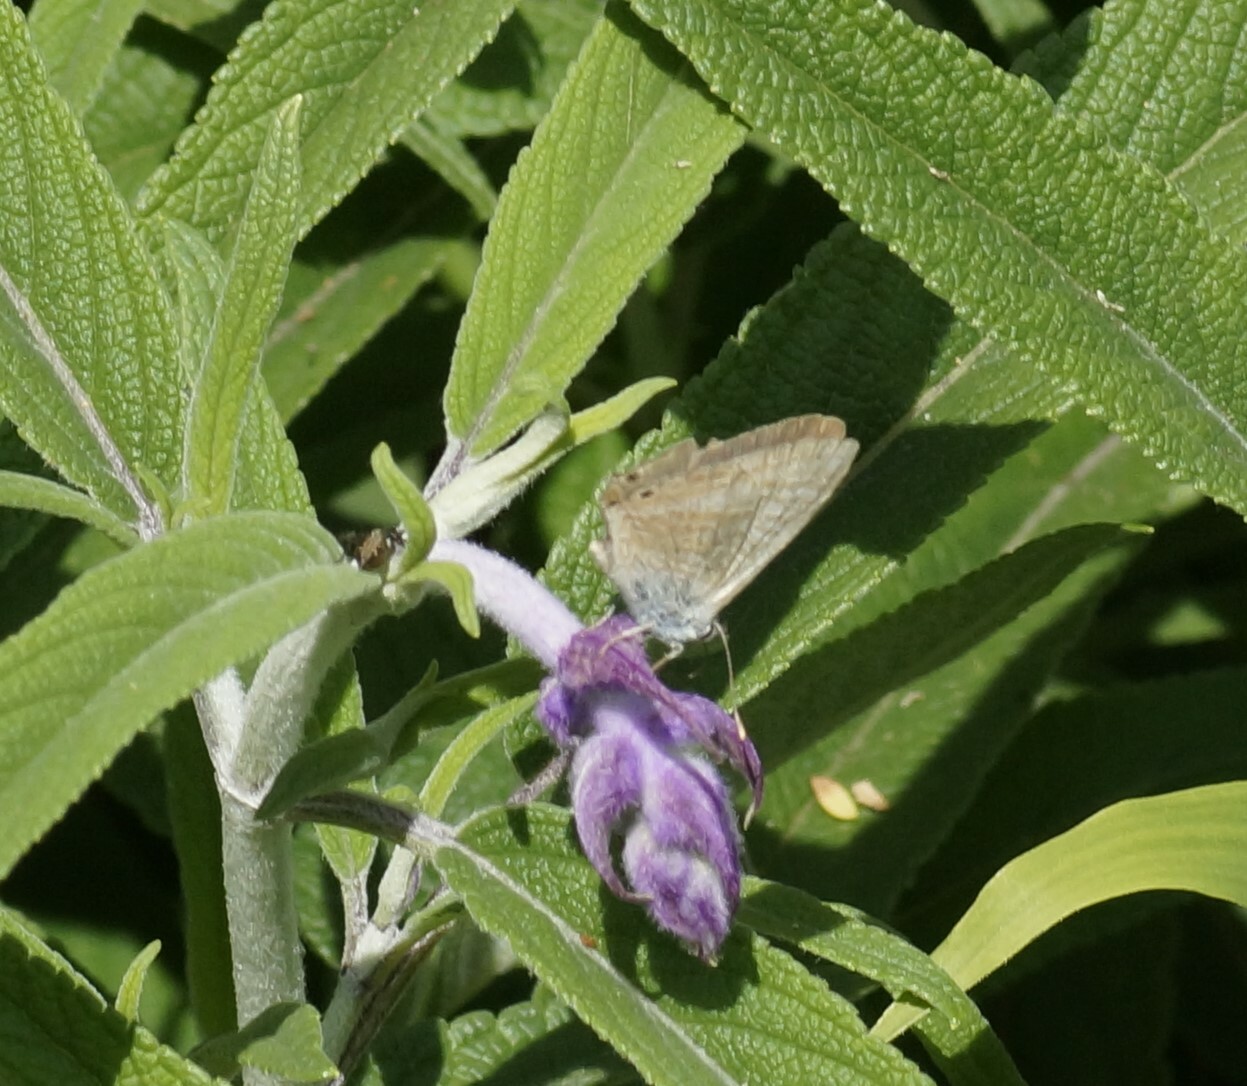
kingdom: Animalia
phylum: Arthropoda
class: Insecta
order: Lepidoptera
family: Lycaenidae
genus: Lampides
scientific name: Lampides boeticus
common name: Long-tailed blue
